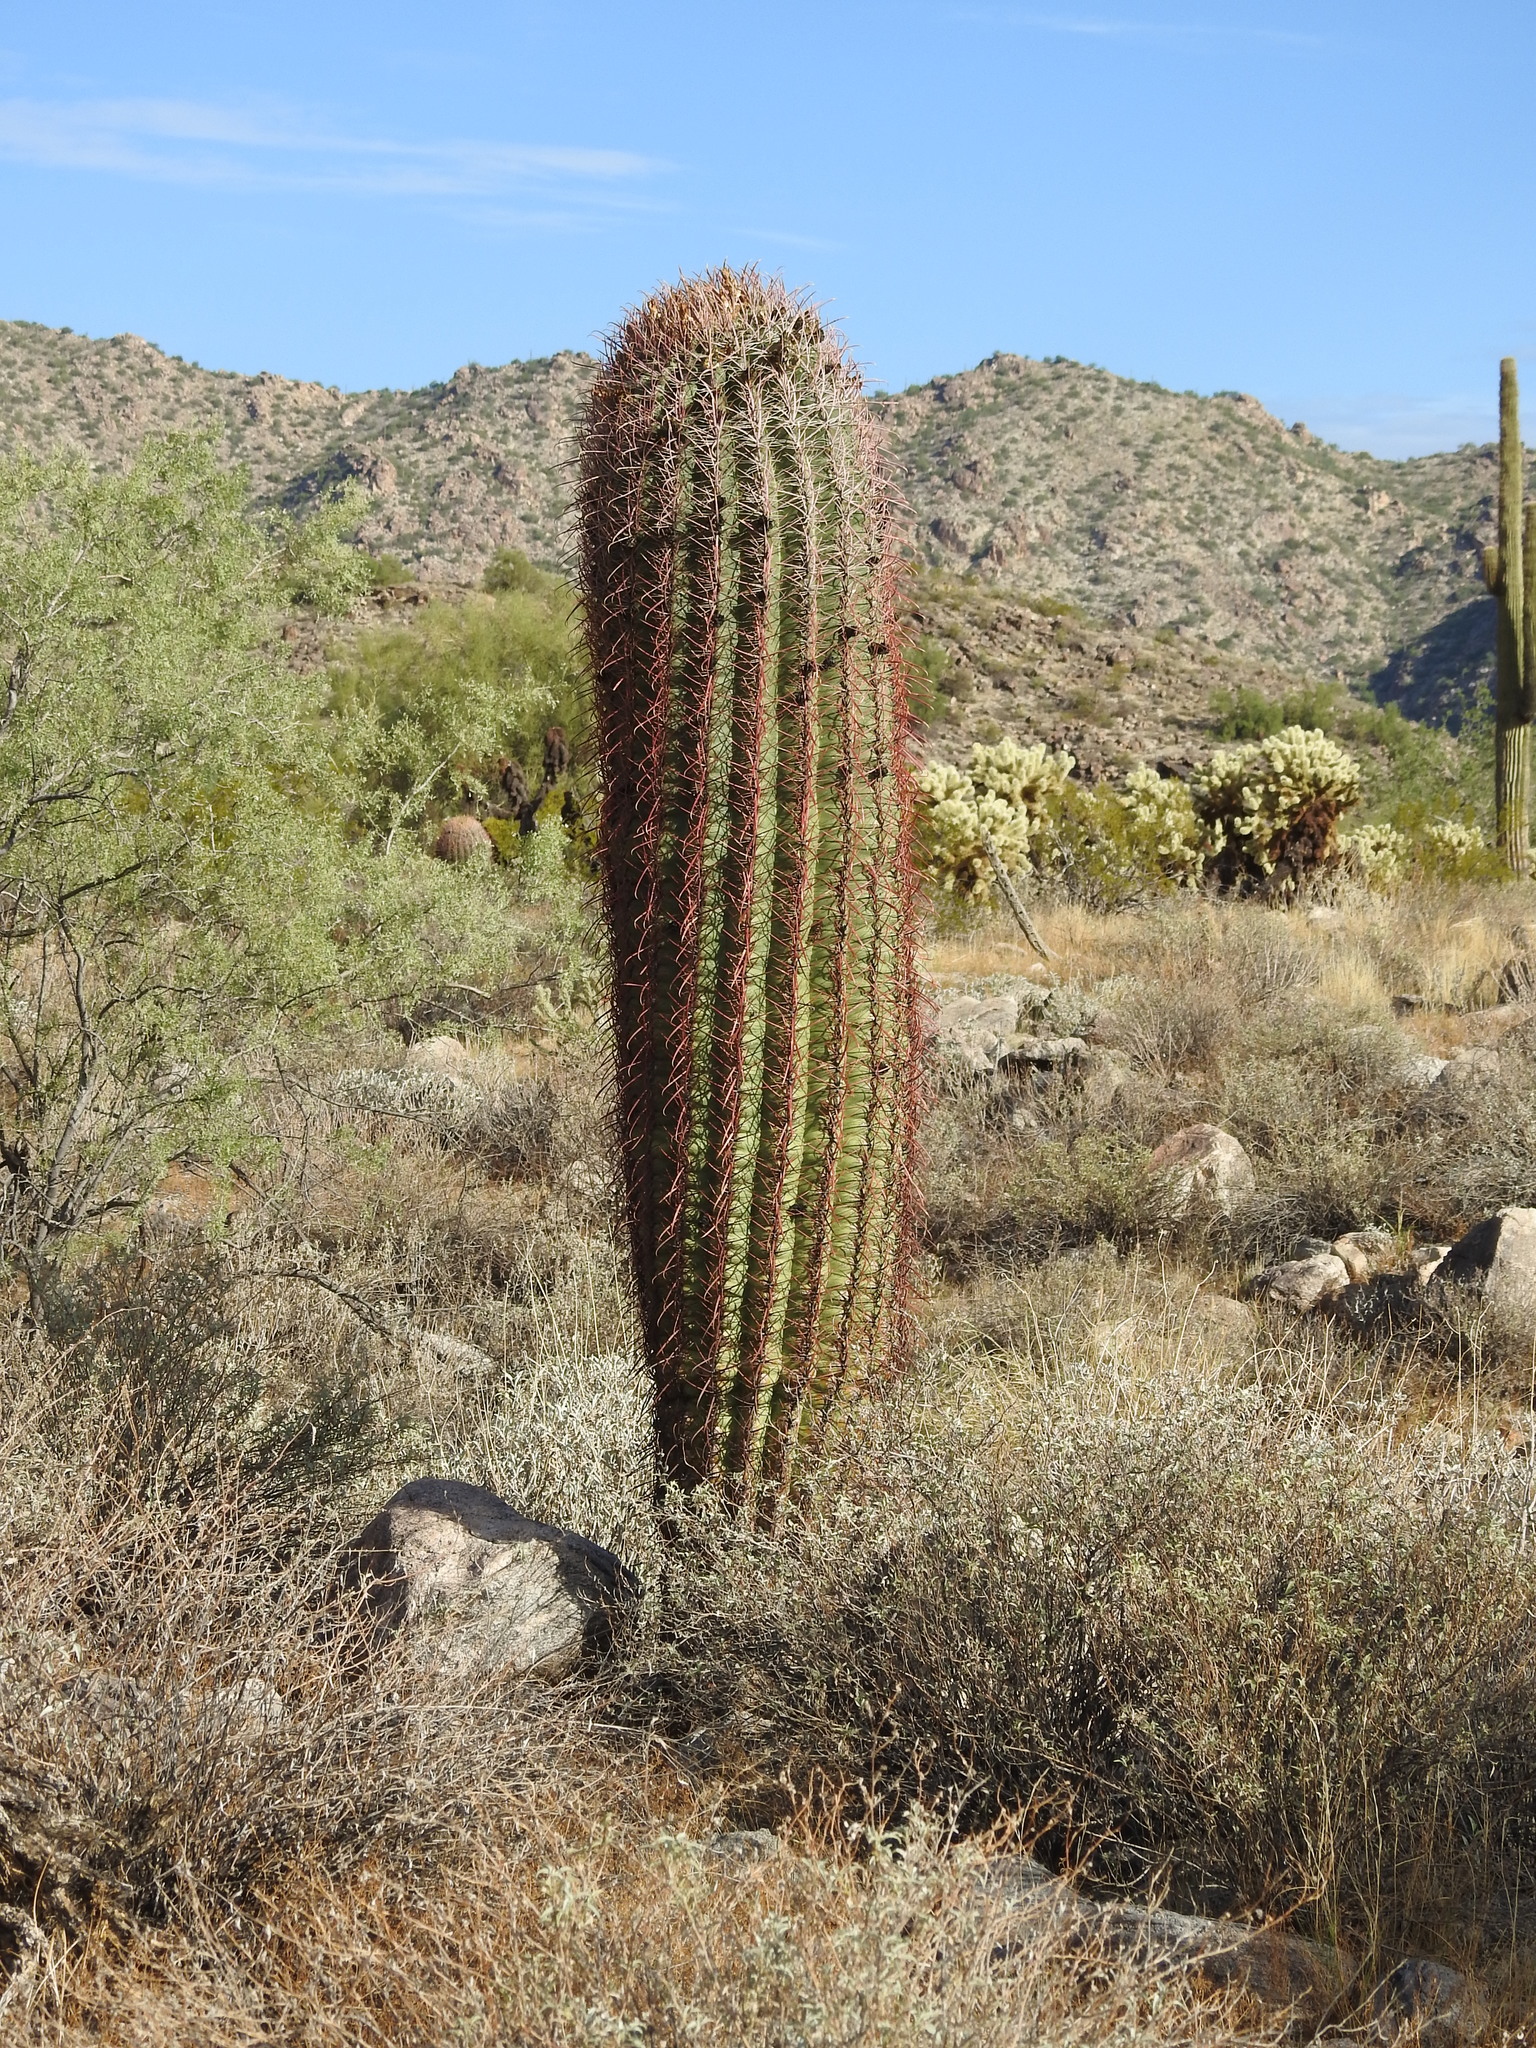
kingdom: Plantae
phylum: Tracheophyta
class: Magnoliopsida
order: Caryophyllales
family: Cactaceae
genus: Ferocactus
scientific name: Ferocactus cylindraceus
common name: California barrel cactus
